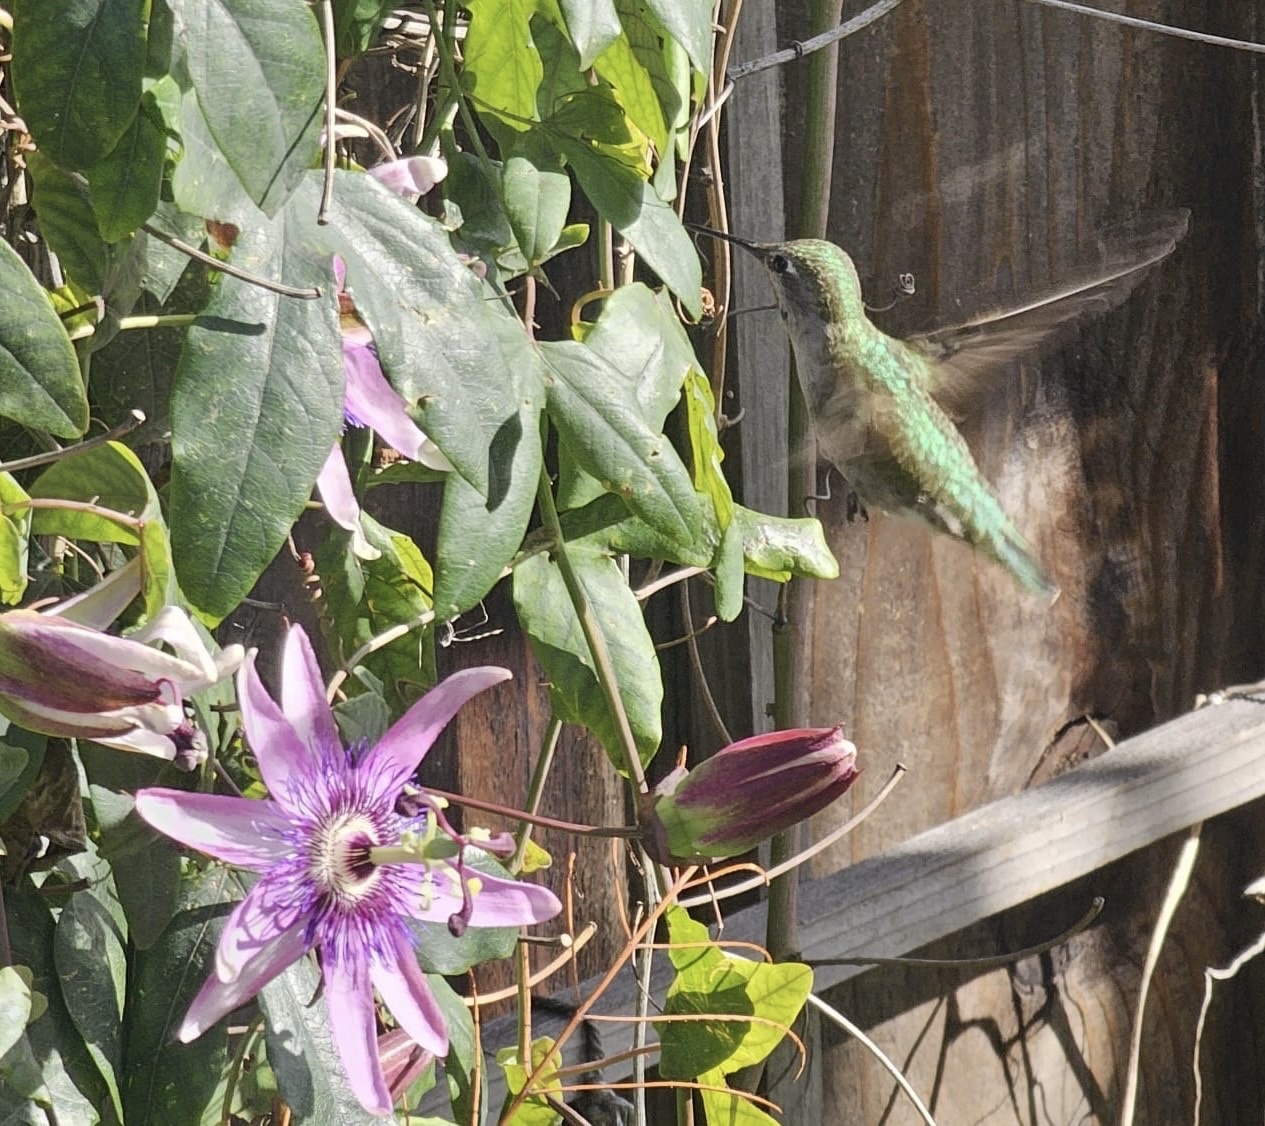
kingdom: Animalia
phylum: Chordata
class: Aves
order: Apodiformes
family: Trochilidae
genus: Calypte
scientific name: Calypte anna
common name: Anna's hummingbird
